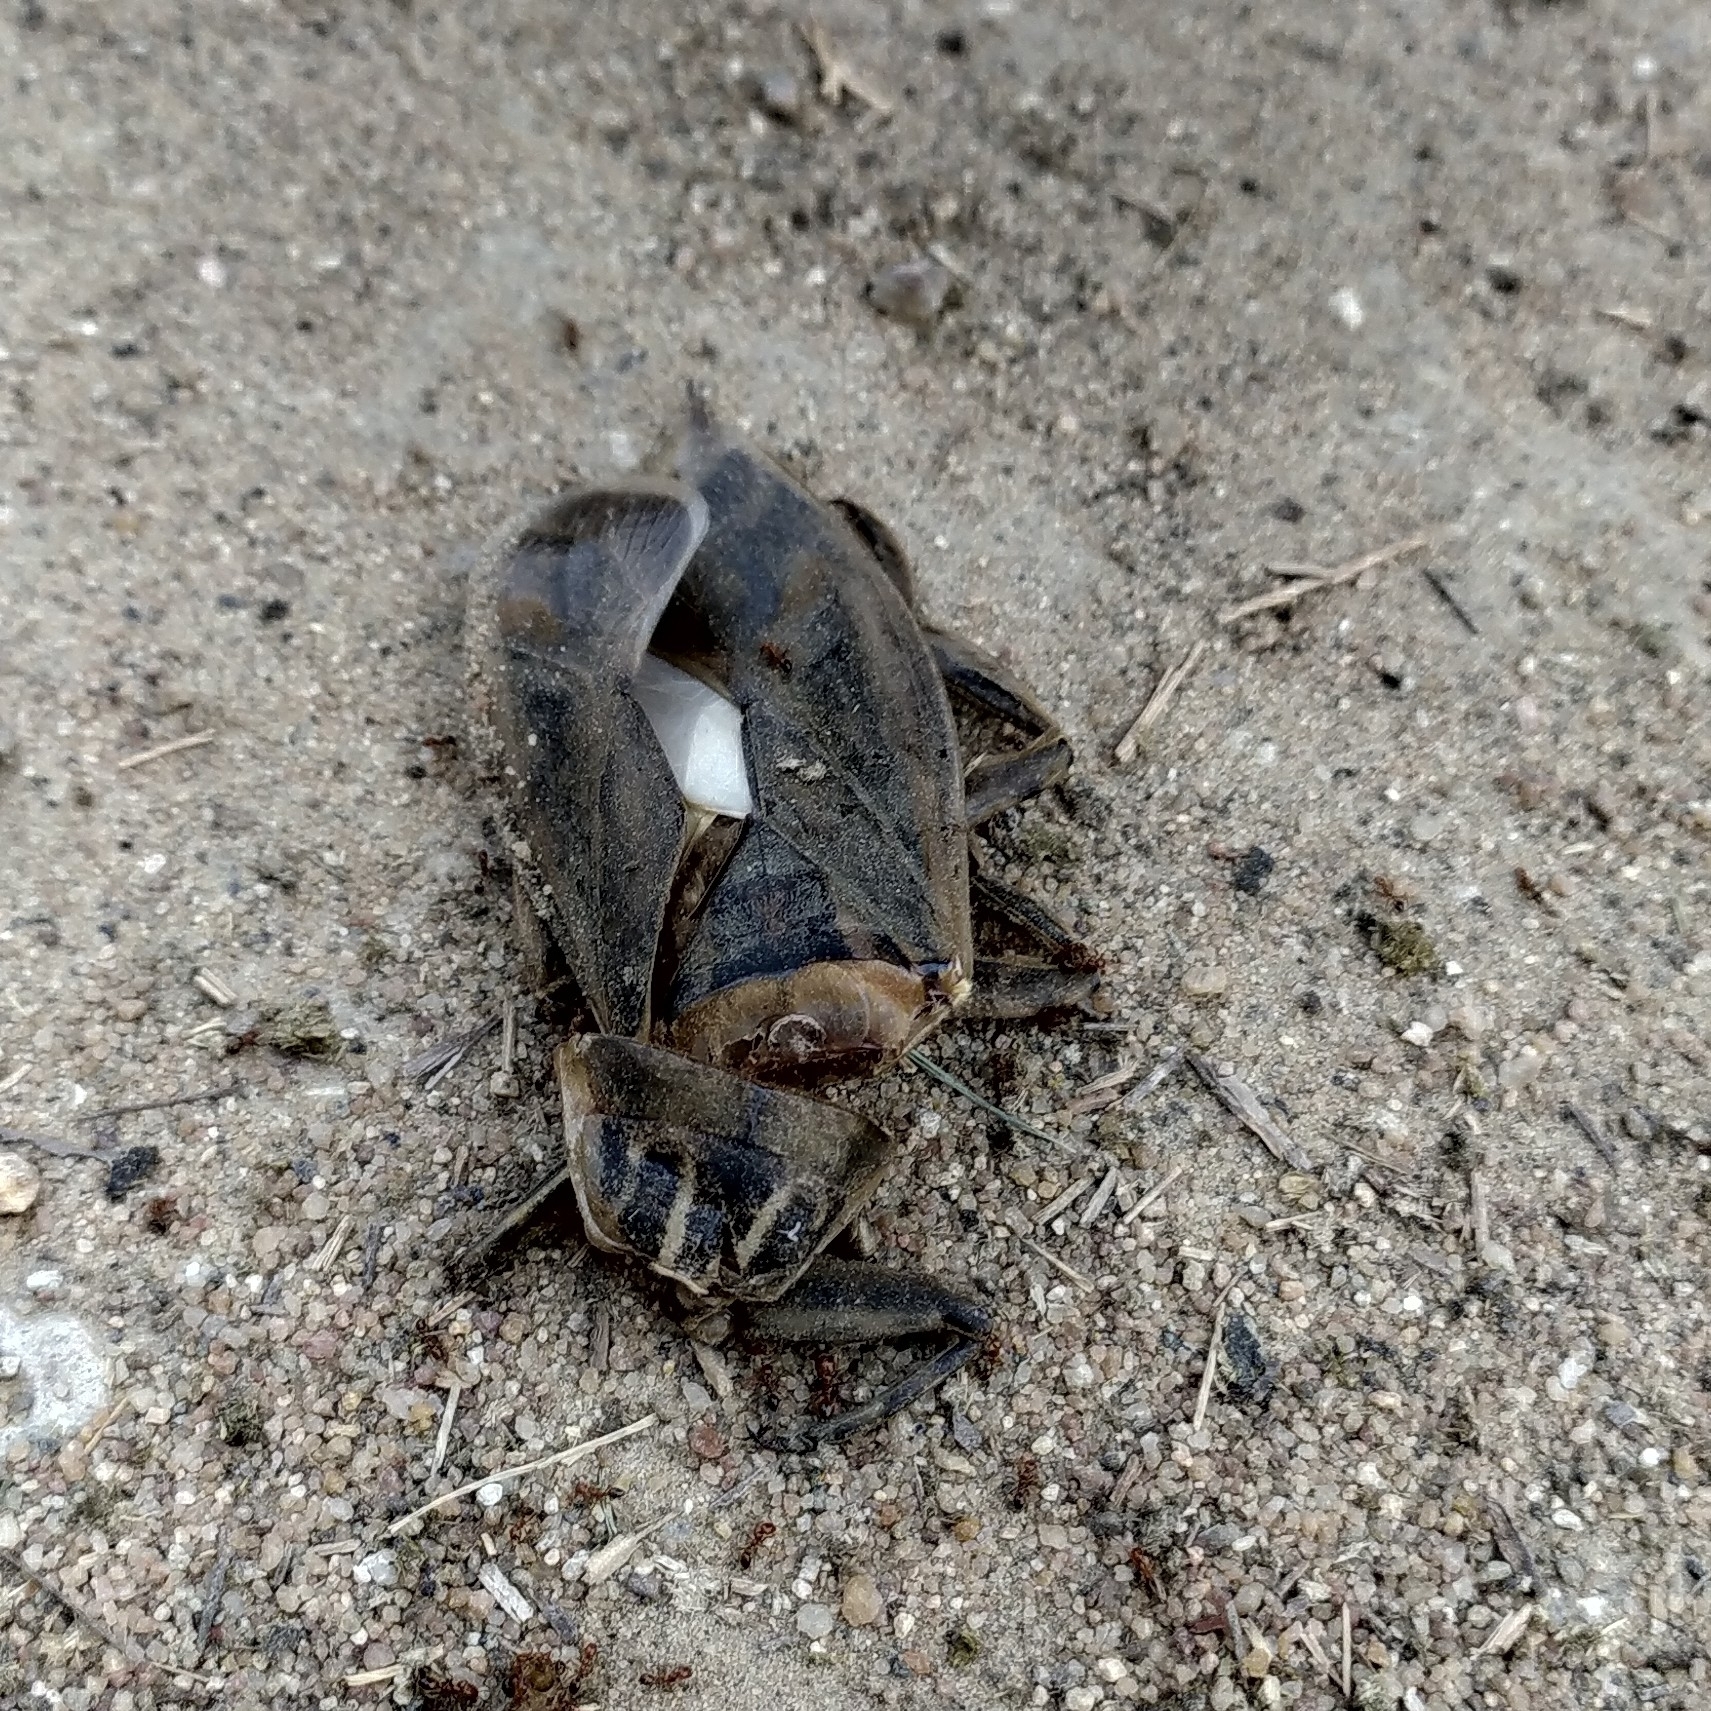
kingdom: Animalia
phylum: Arthropoda
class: Insecta
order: Hemiptera
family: Belostomatidae
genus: Lethocerus
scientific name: Lethocerus indicus
